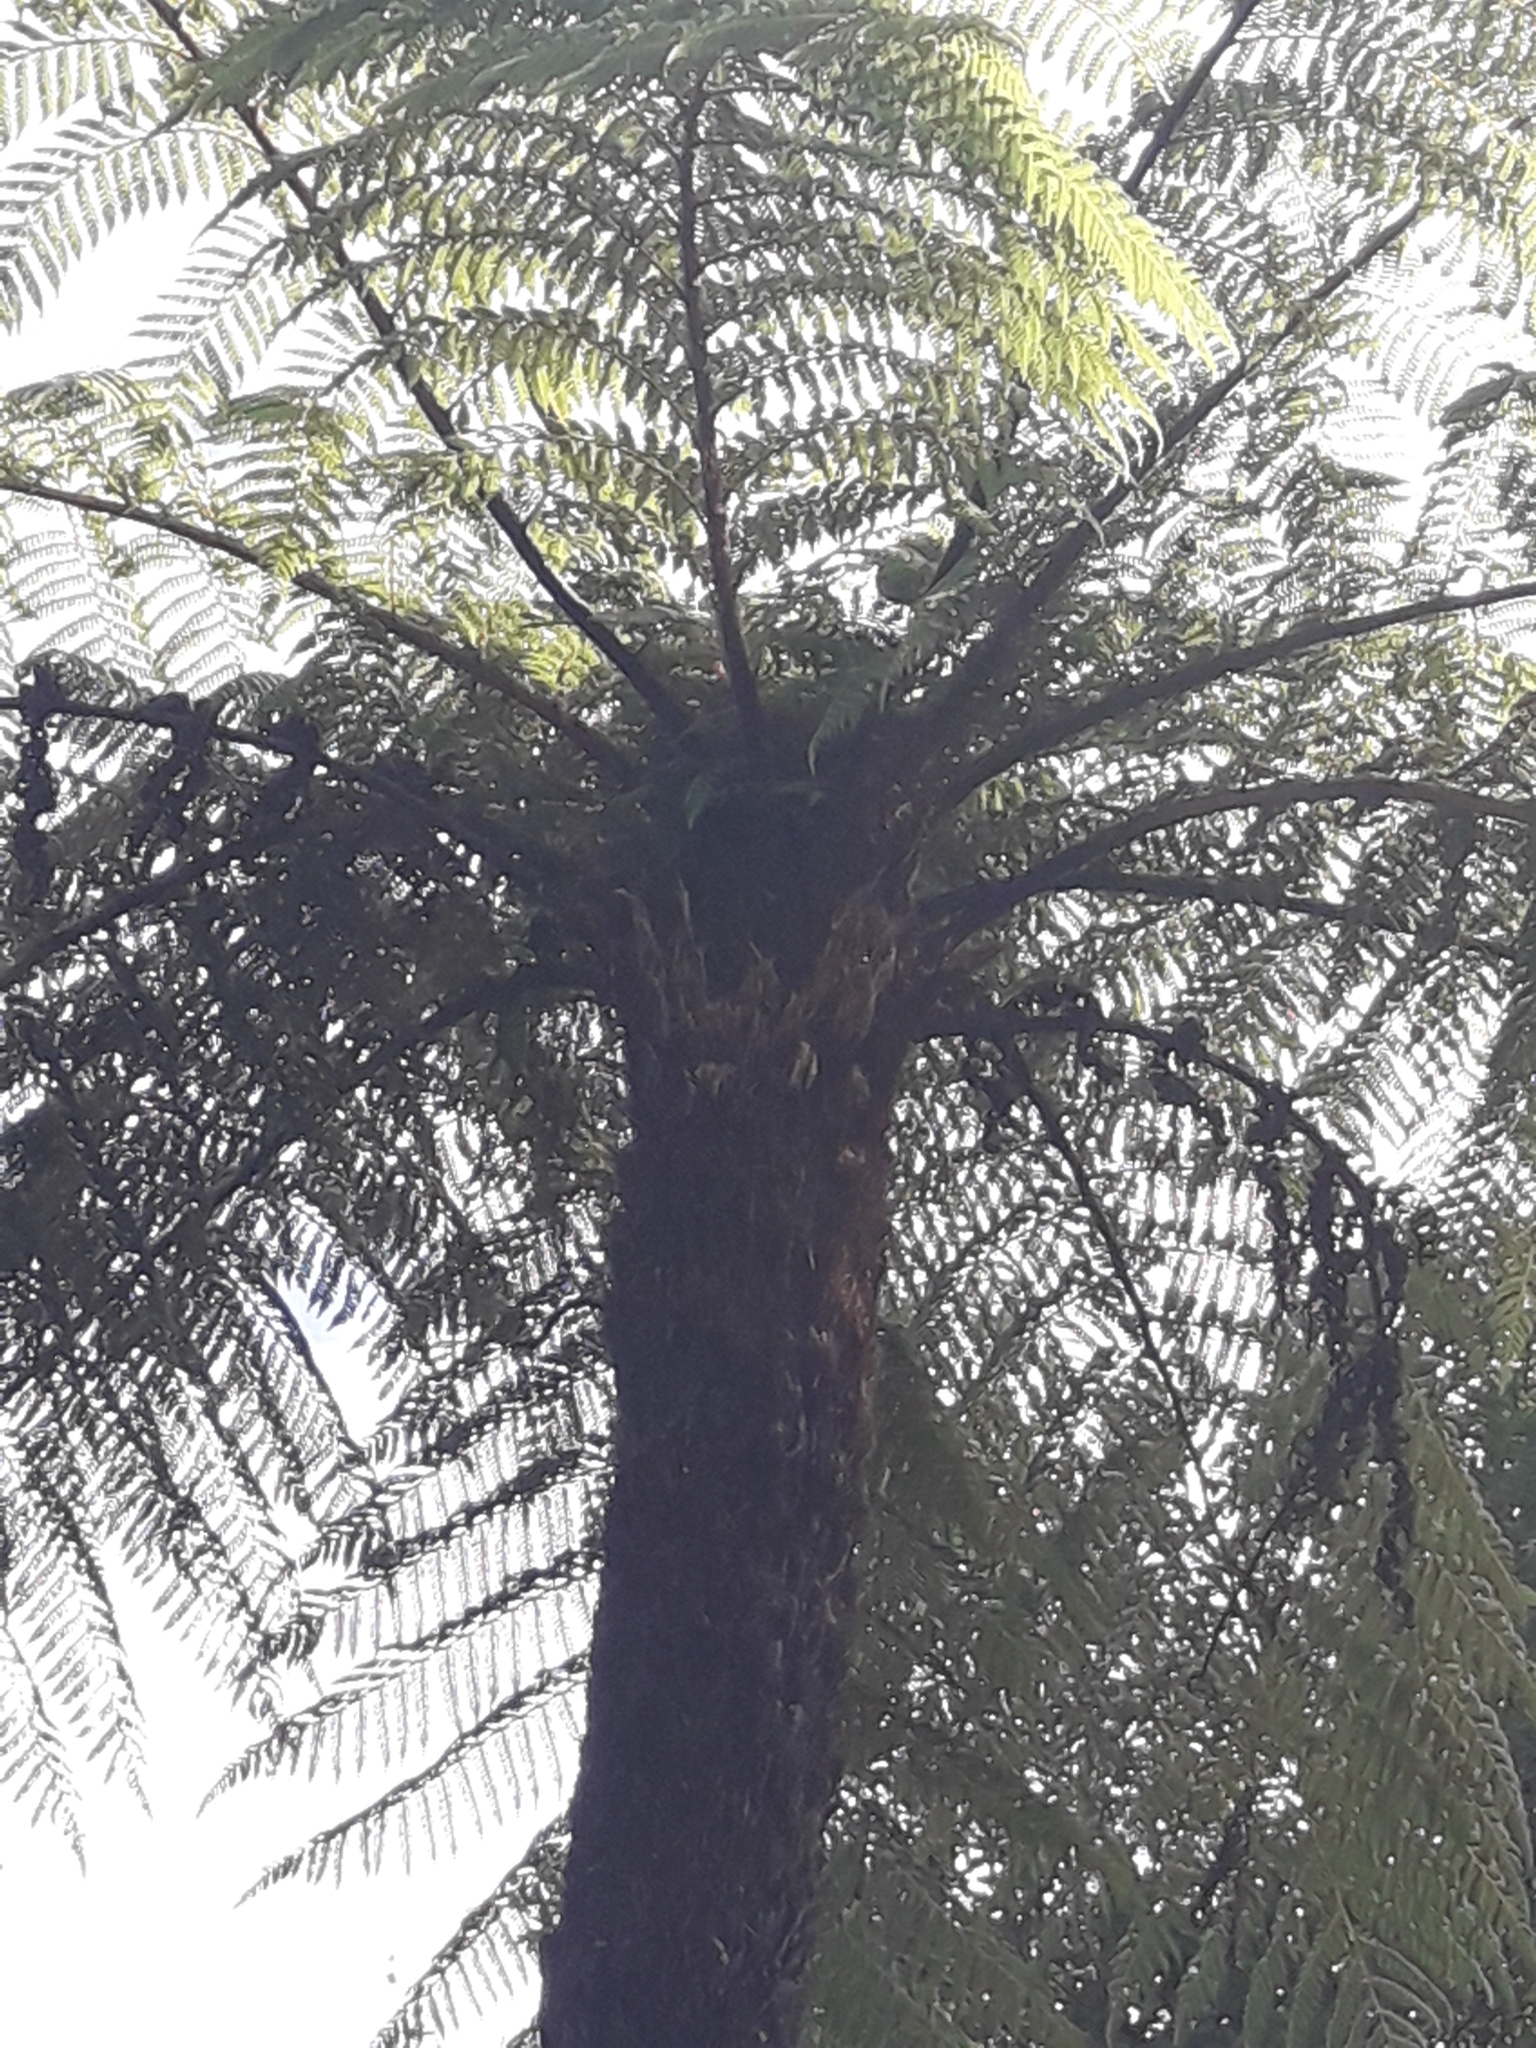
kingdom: Plantae
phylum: Tracheophyta
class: Polypodiopsida
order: Cyatheales
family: Cyatheaceae
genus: Cyathea
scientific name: Cyathea cunninghamii
